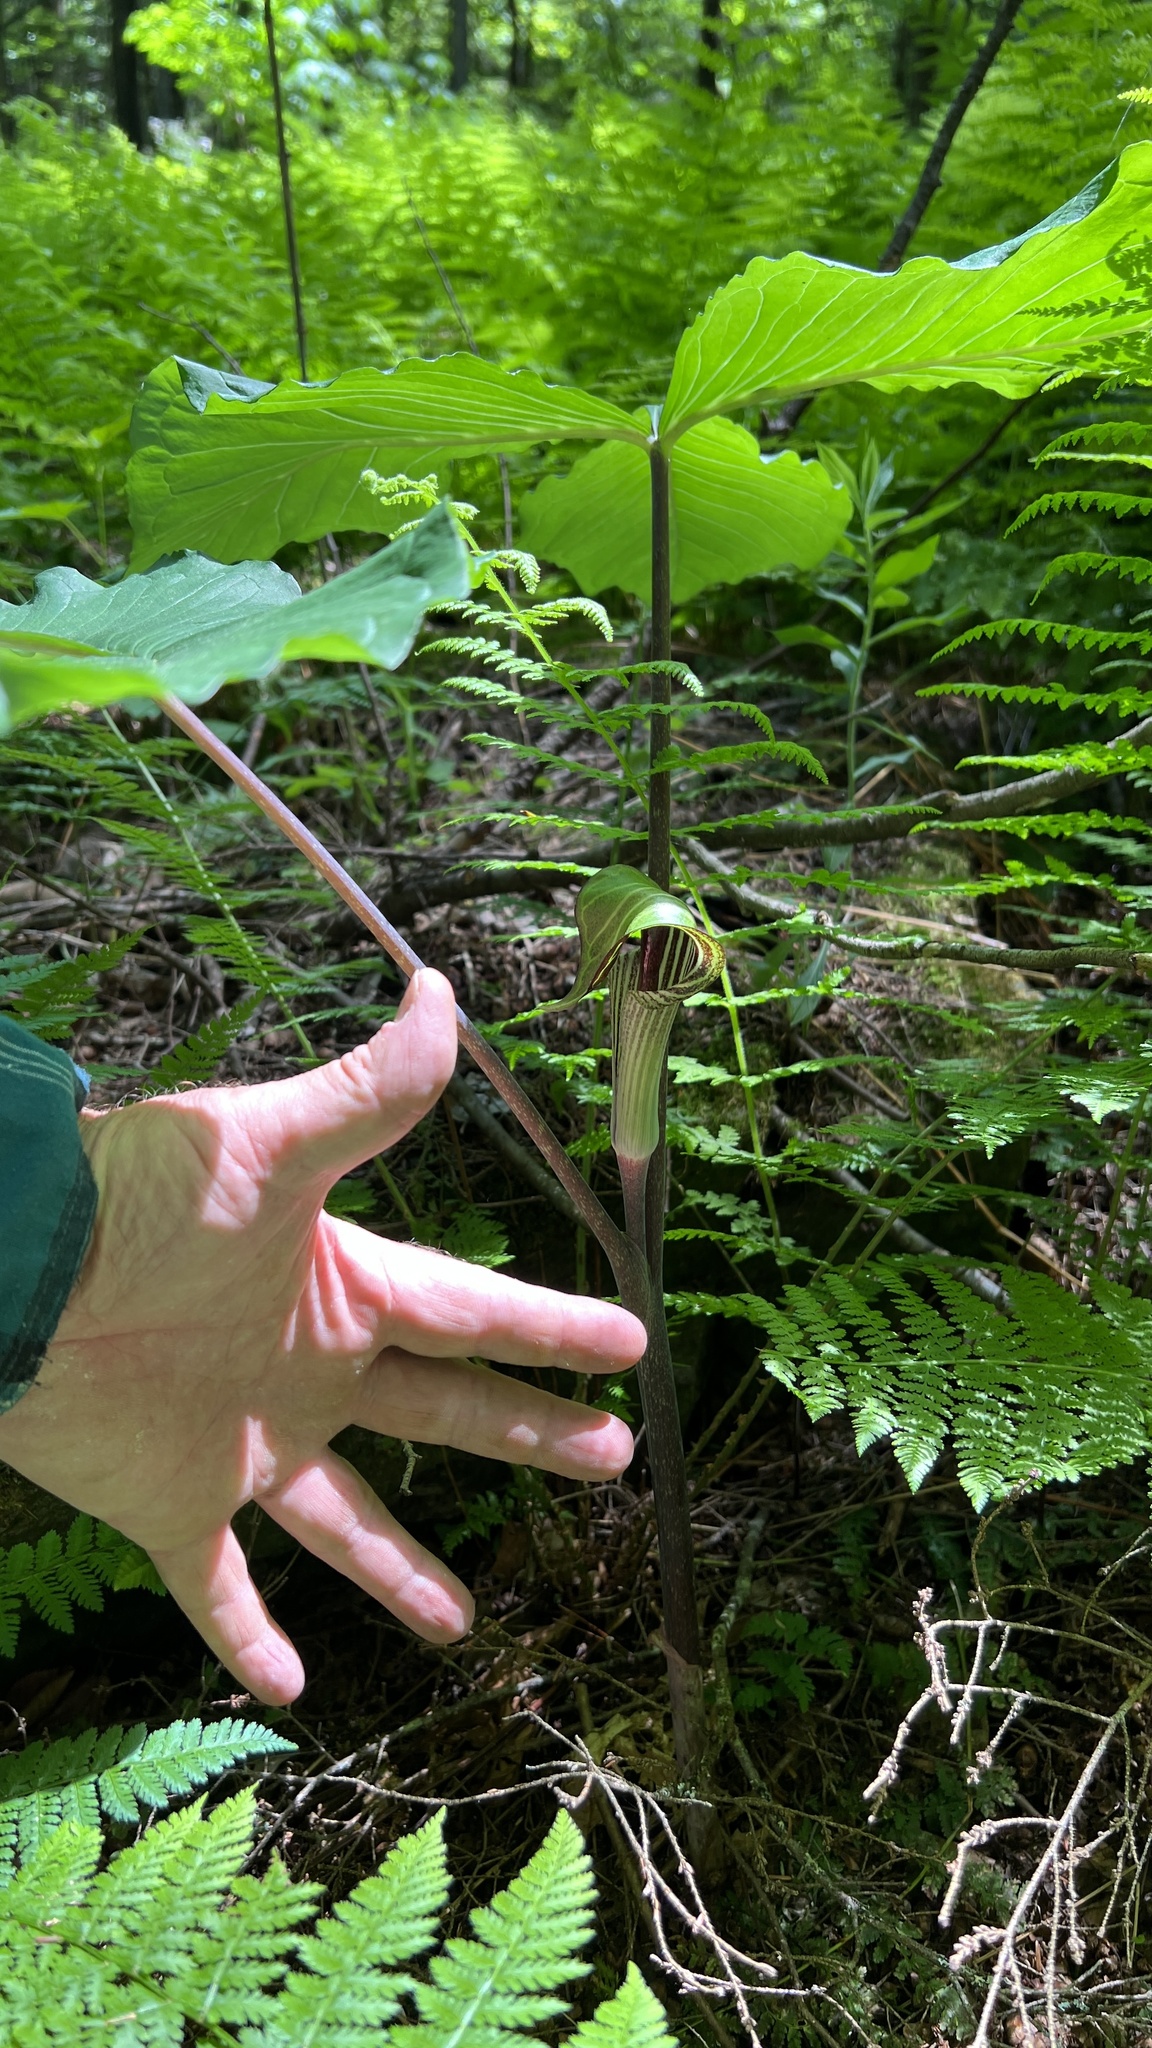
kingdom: Plantae
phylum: Tracheophyta
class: Liliopsida
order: Alismatales
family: Araceae
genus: Arisaema
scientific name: Arisaema triphyllum
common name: Jack-in-the-pulpit
